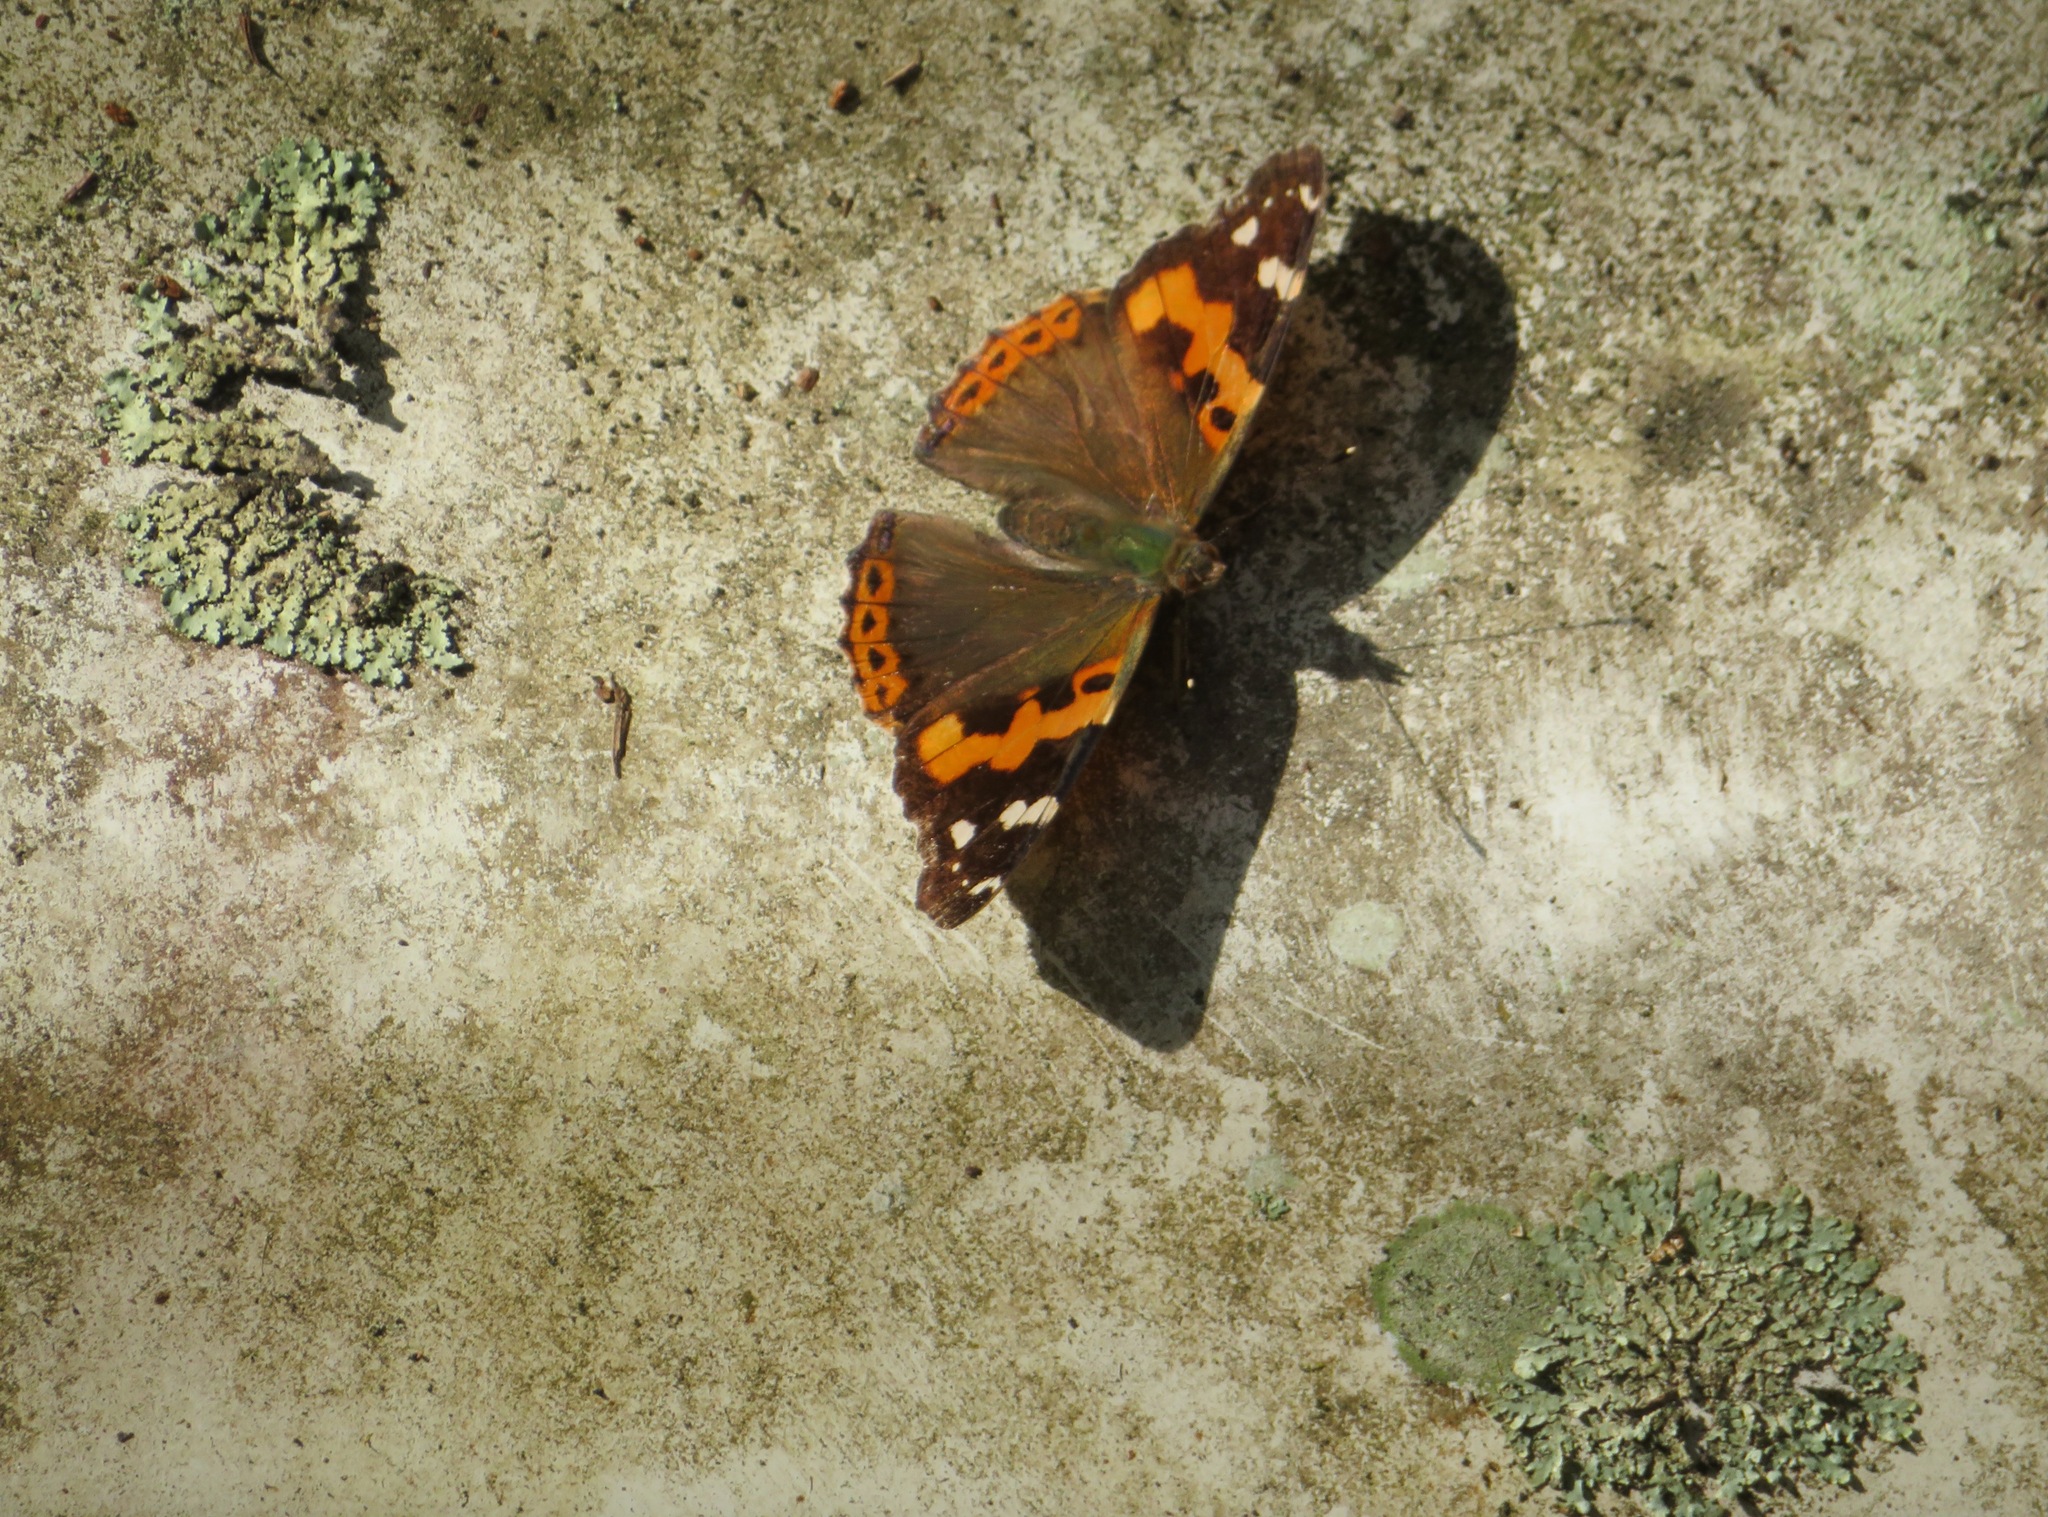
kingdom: Animalia
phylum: Arthropoda
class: Insecta
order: Lepidoptera
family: Nymphalidae
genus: Vanessa
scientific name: Vanessa indica
